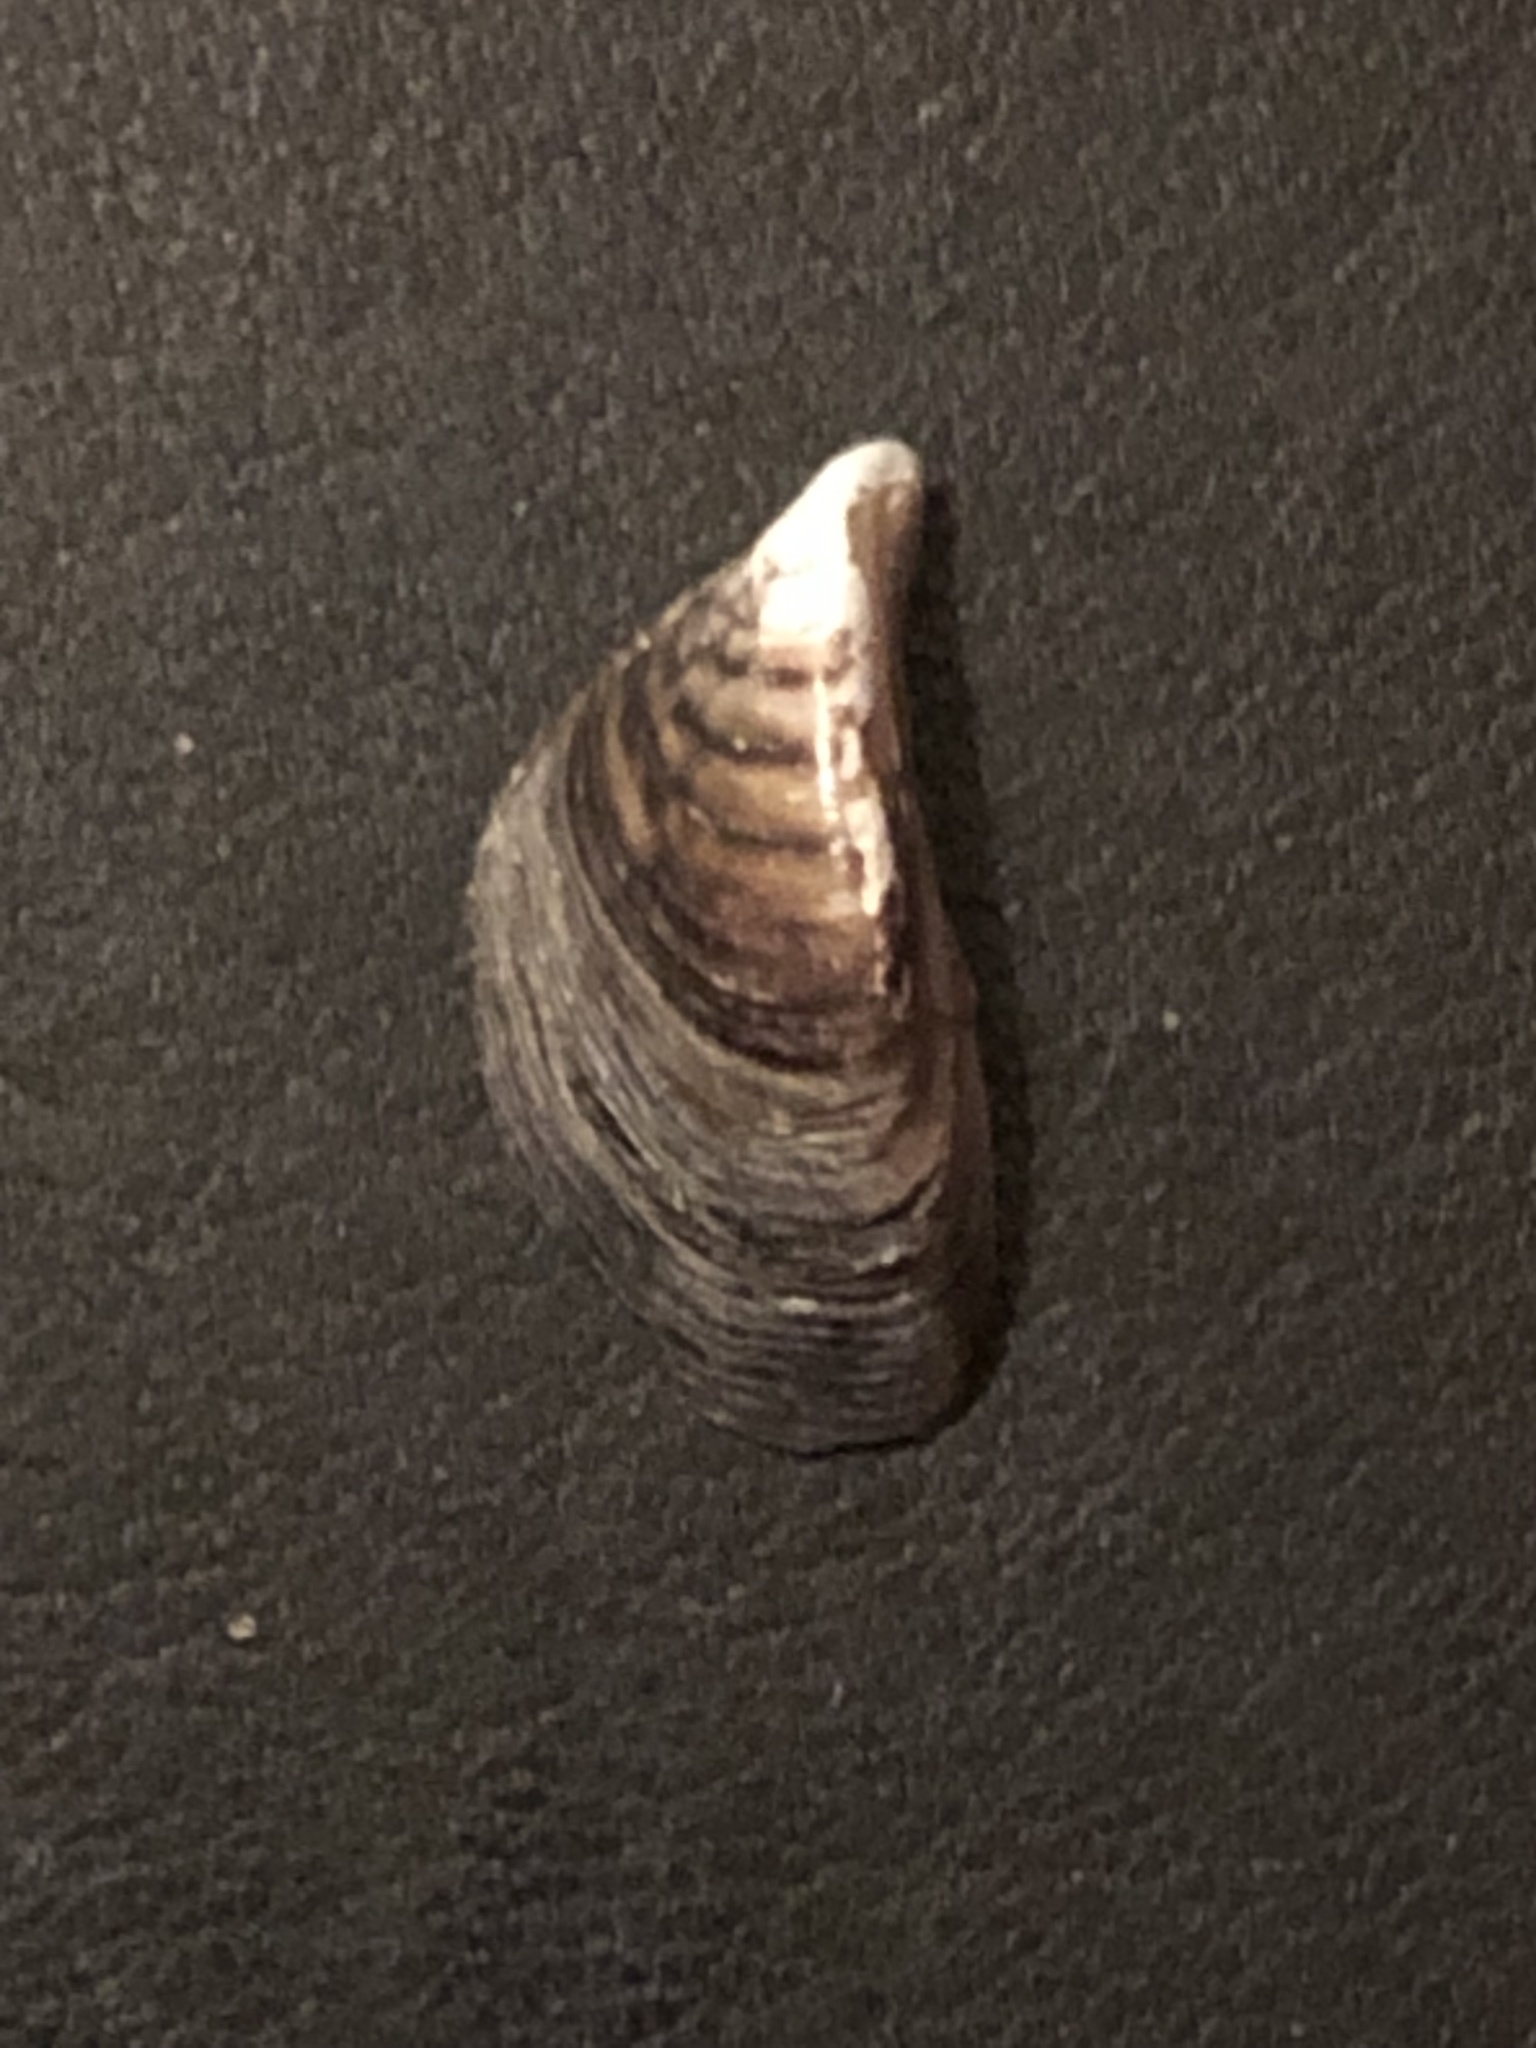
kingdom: Animalia
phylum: Mollusca
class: Bivalvia
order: Myida
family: Dreissenidae
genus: Dreissena
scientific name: Dreissena polymorpha
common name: Zebra mussel
